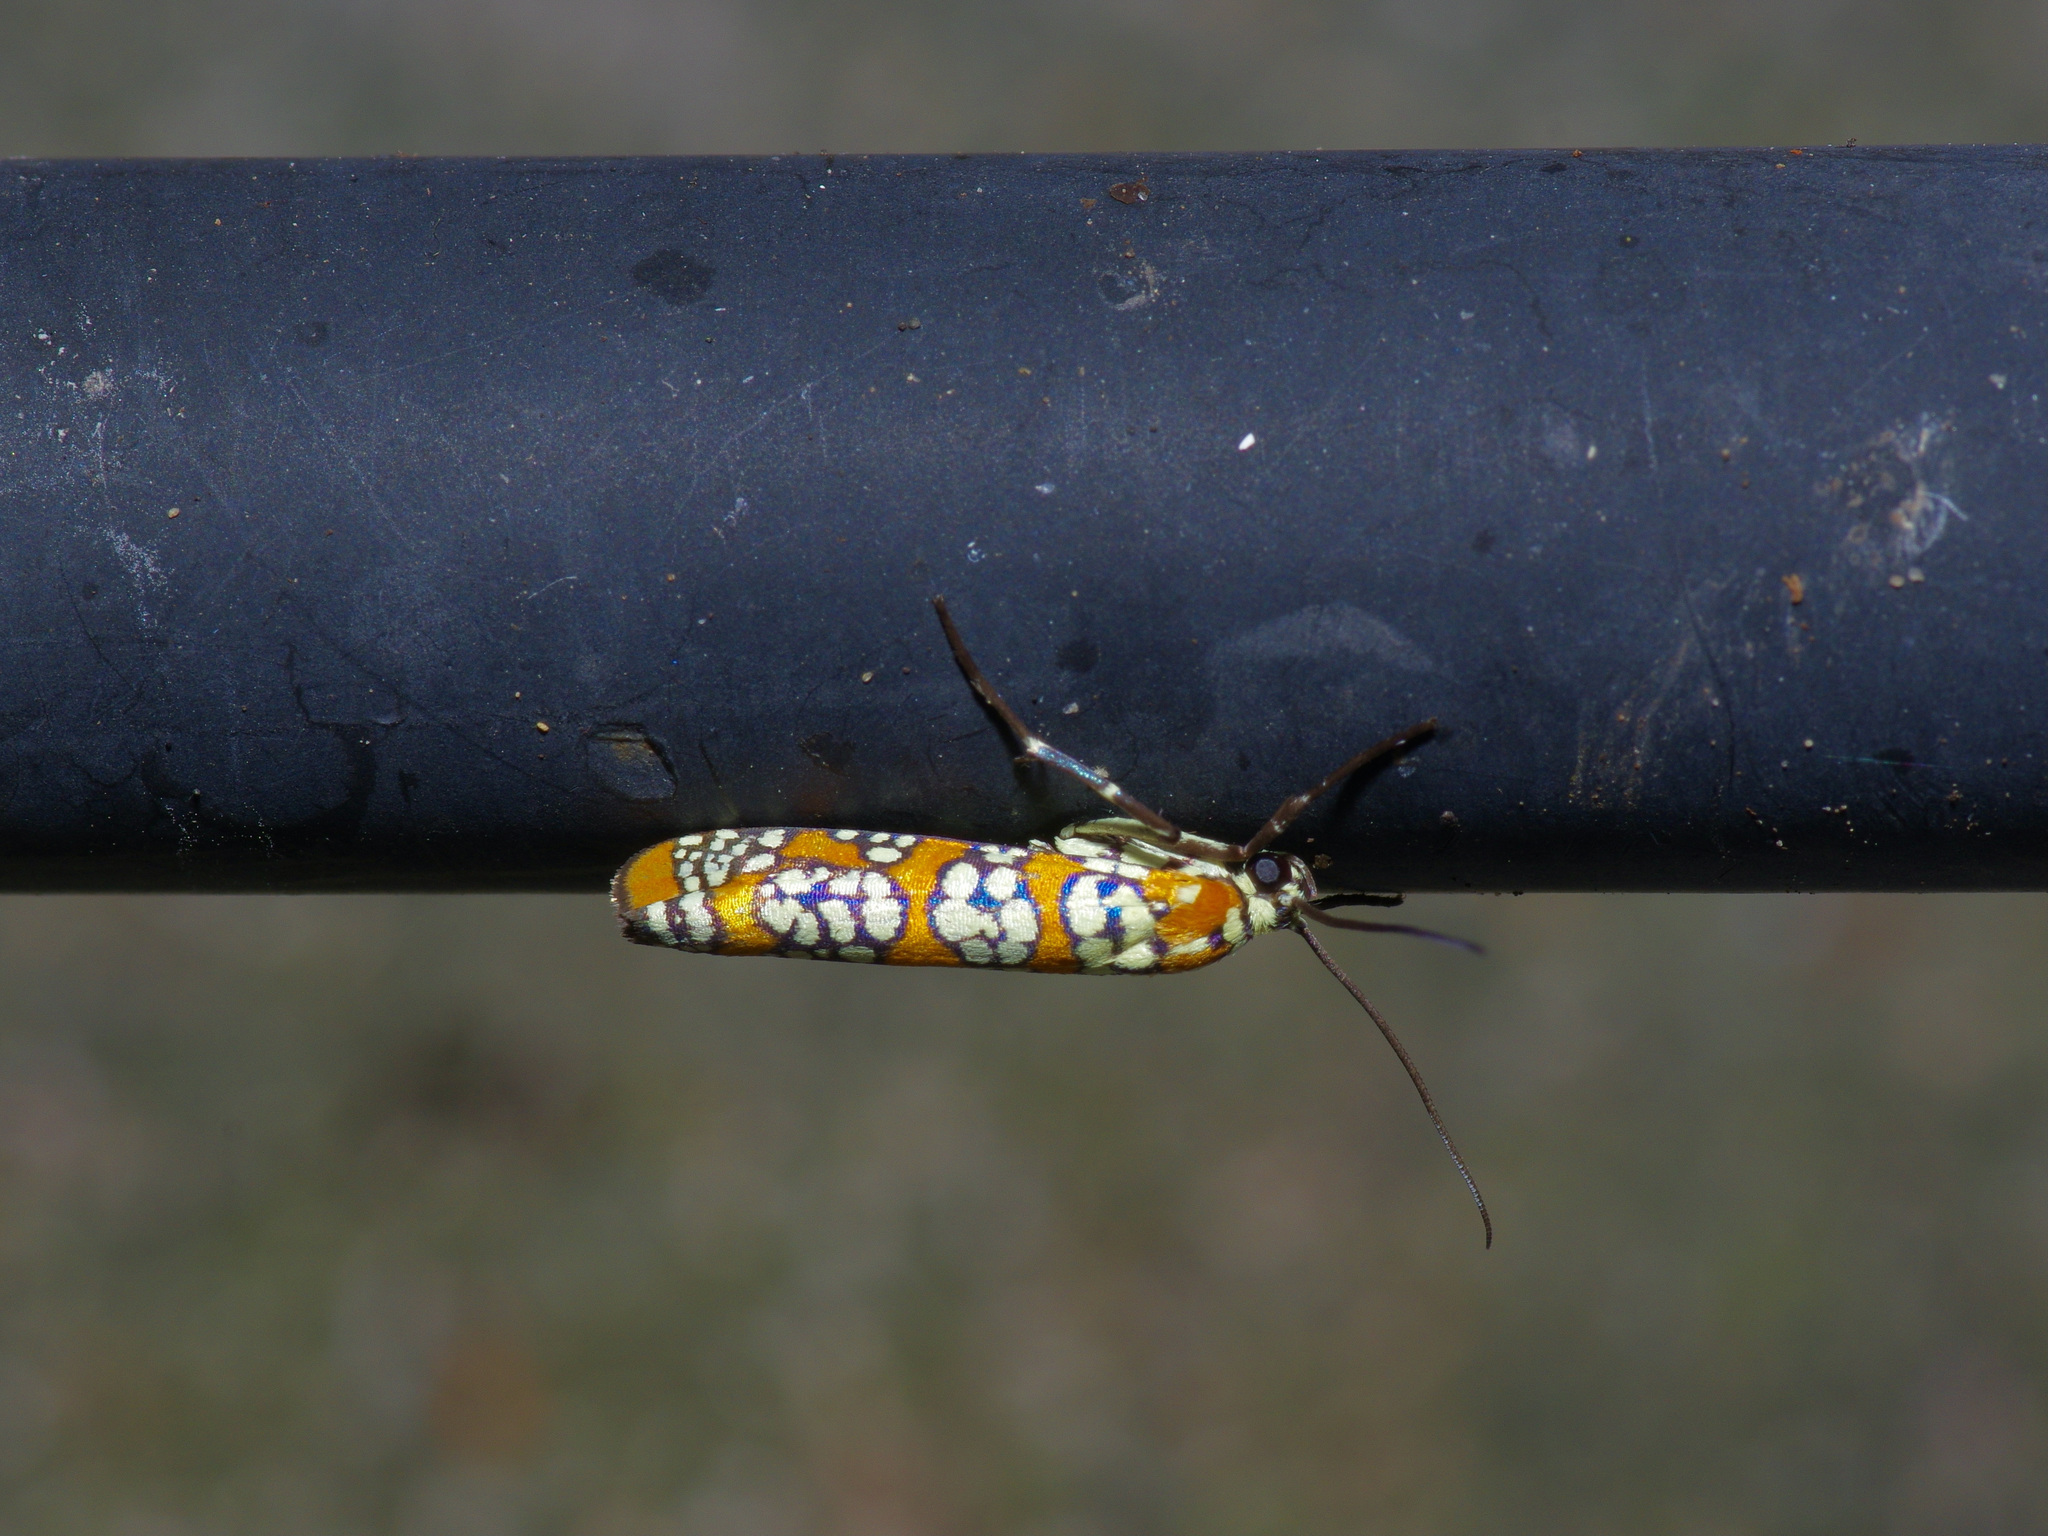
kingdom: Animalia
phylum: Arthropoda
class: Insecta
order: Lepidoptera
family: Attevidae
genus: Atteva
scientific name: Atteva punctella
